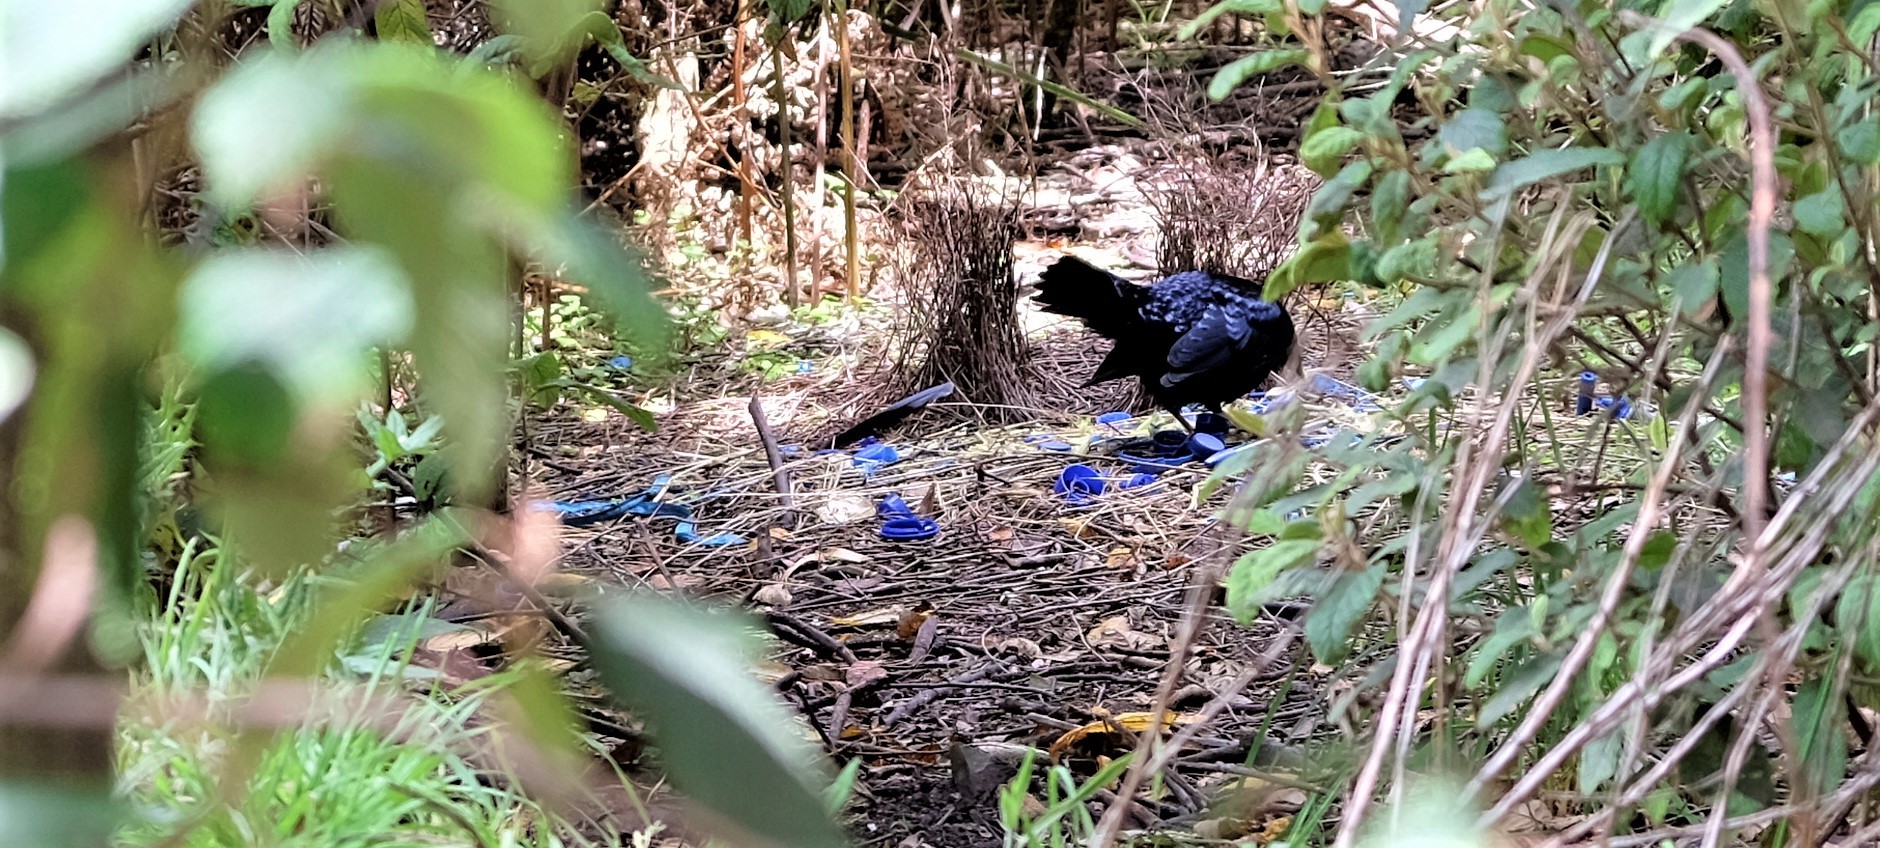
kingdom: Animalia
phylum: Chordata
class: Aves
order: Passeriformes
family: Ptilonorhynchidae
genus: Ptilonorhynchus
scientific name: Ptilonorhynchus violaceus
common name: Satin bowerbird
